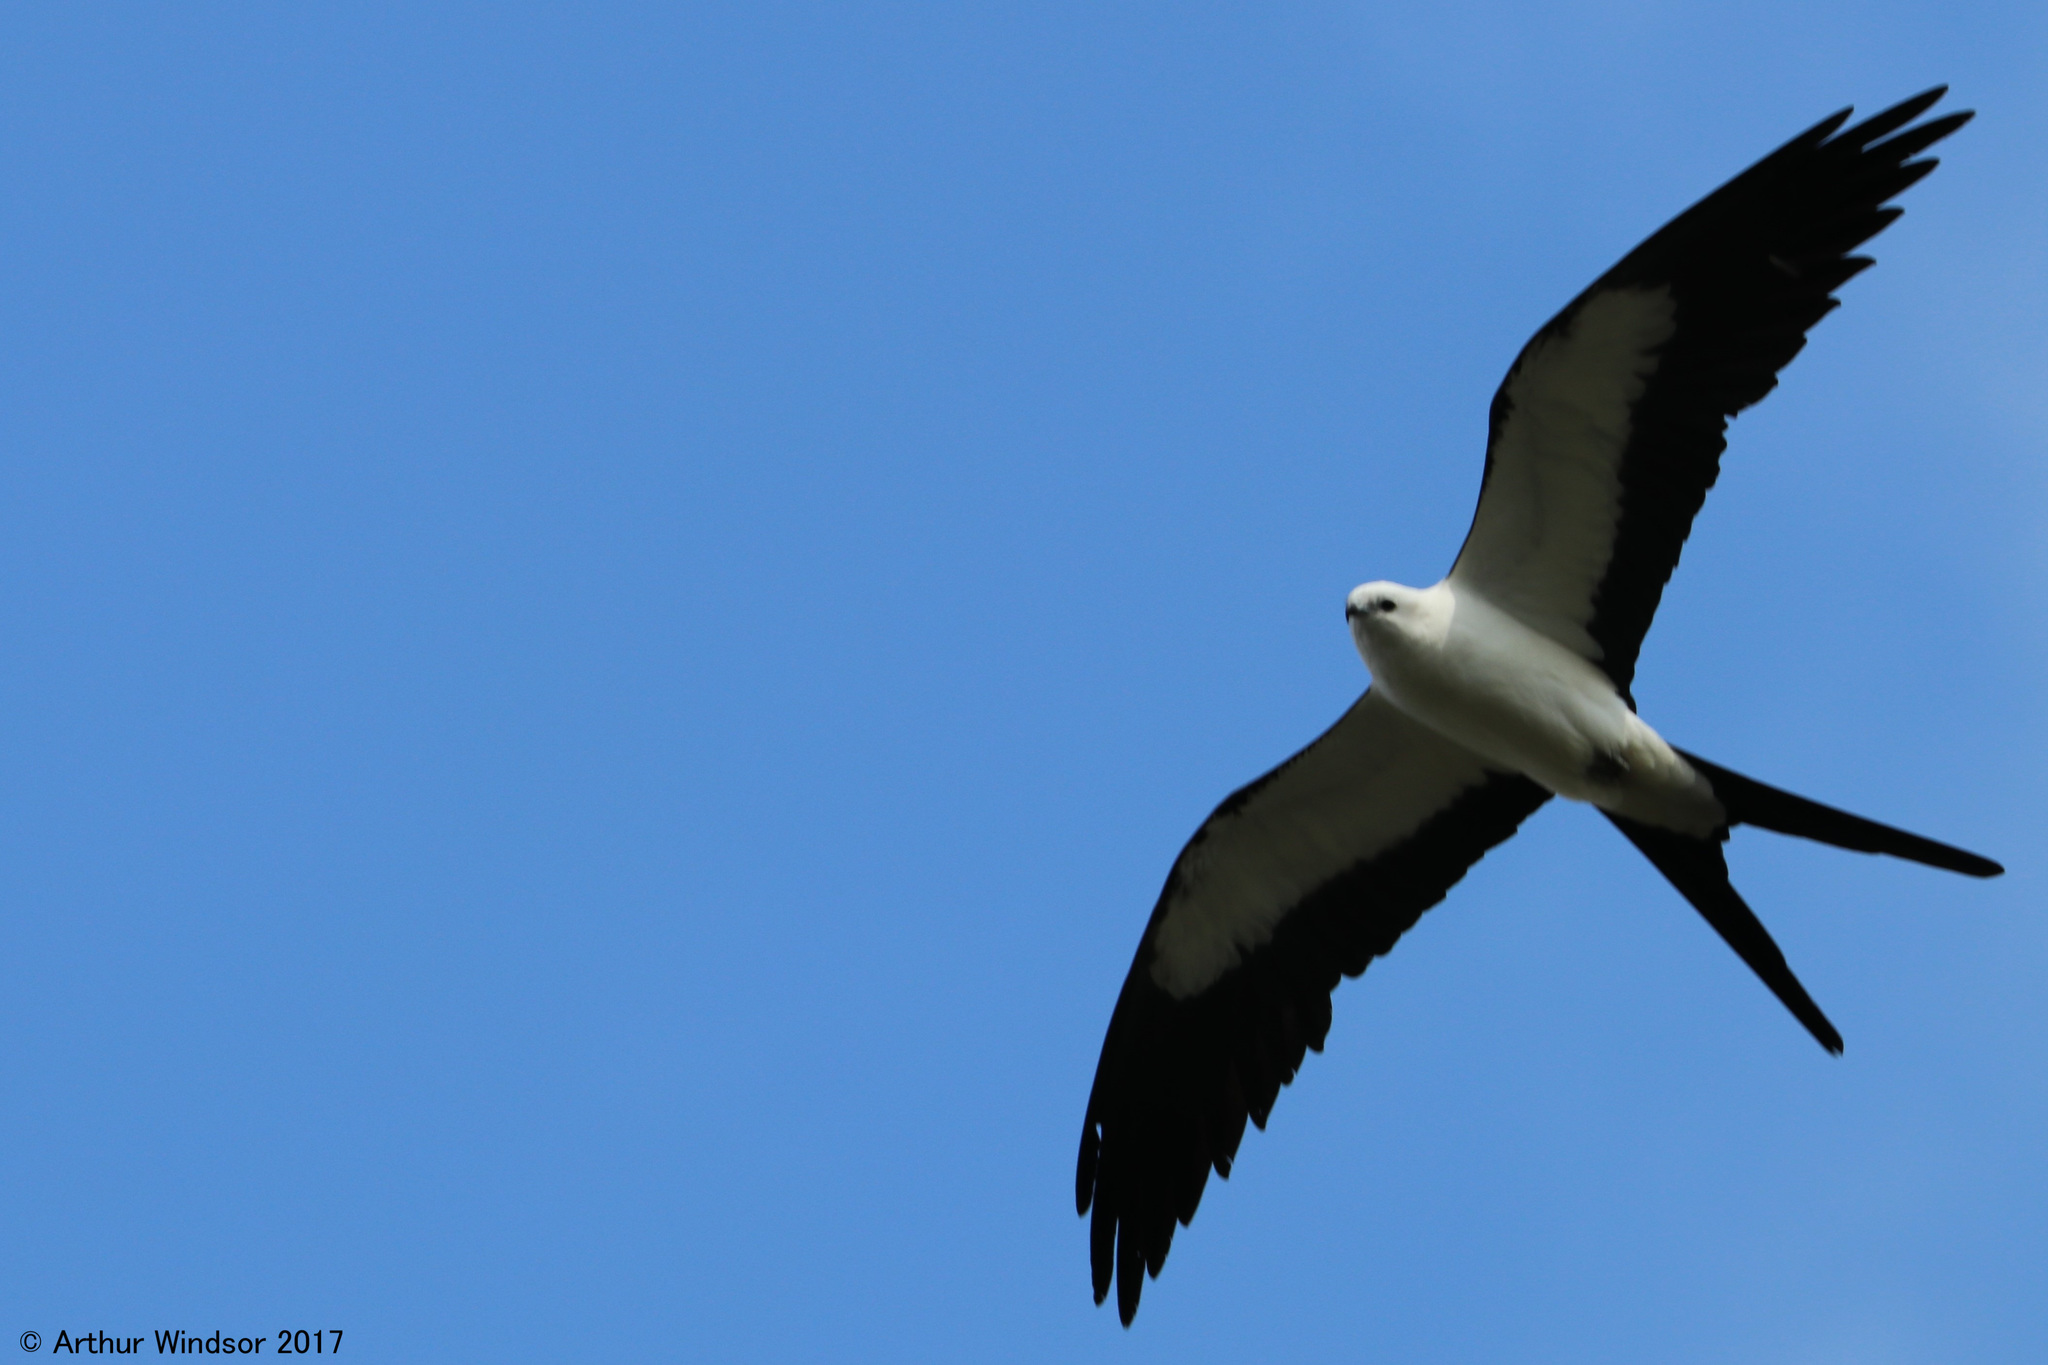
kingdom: Animalia
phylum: Chordata
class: Aves
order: Accipitriformes
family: Accipitridae
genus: Elanoides
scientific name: Elanoides forficatus
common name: Swallow-tailed kite
